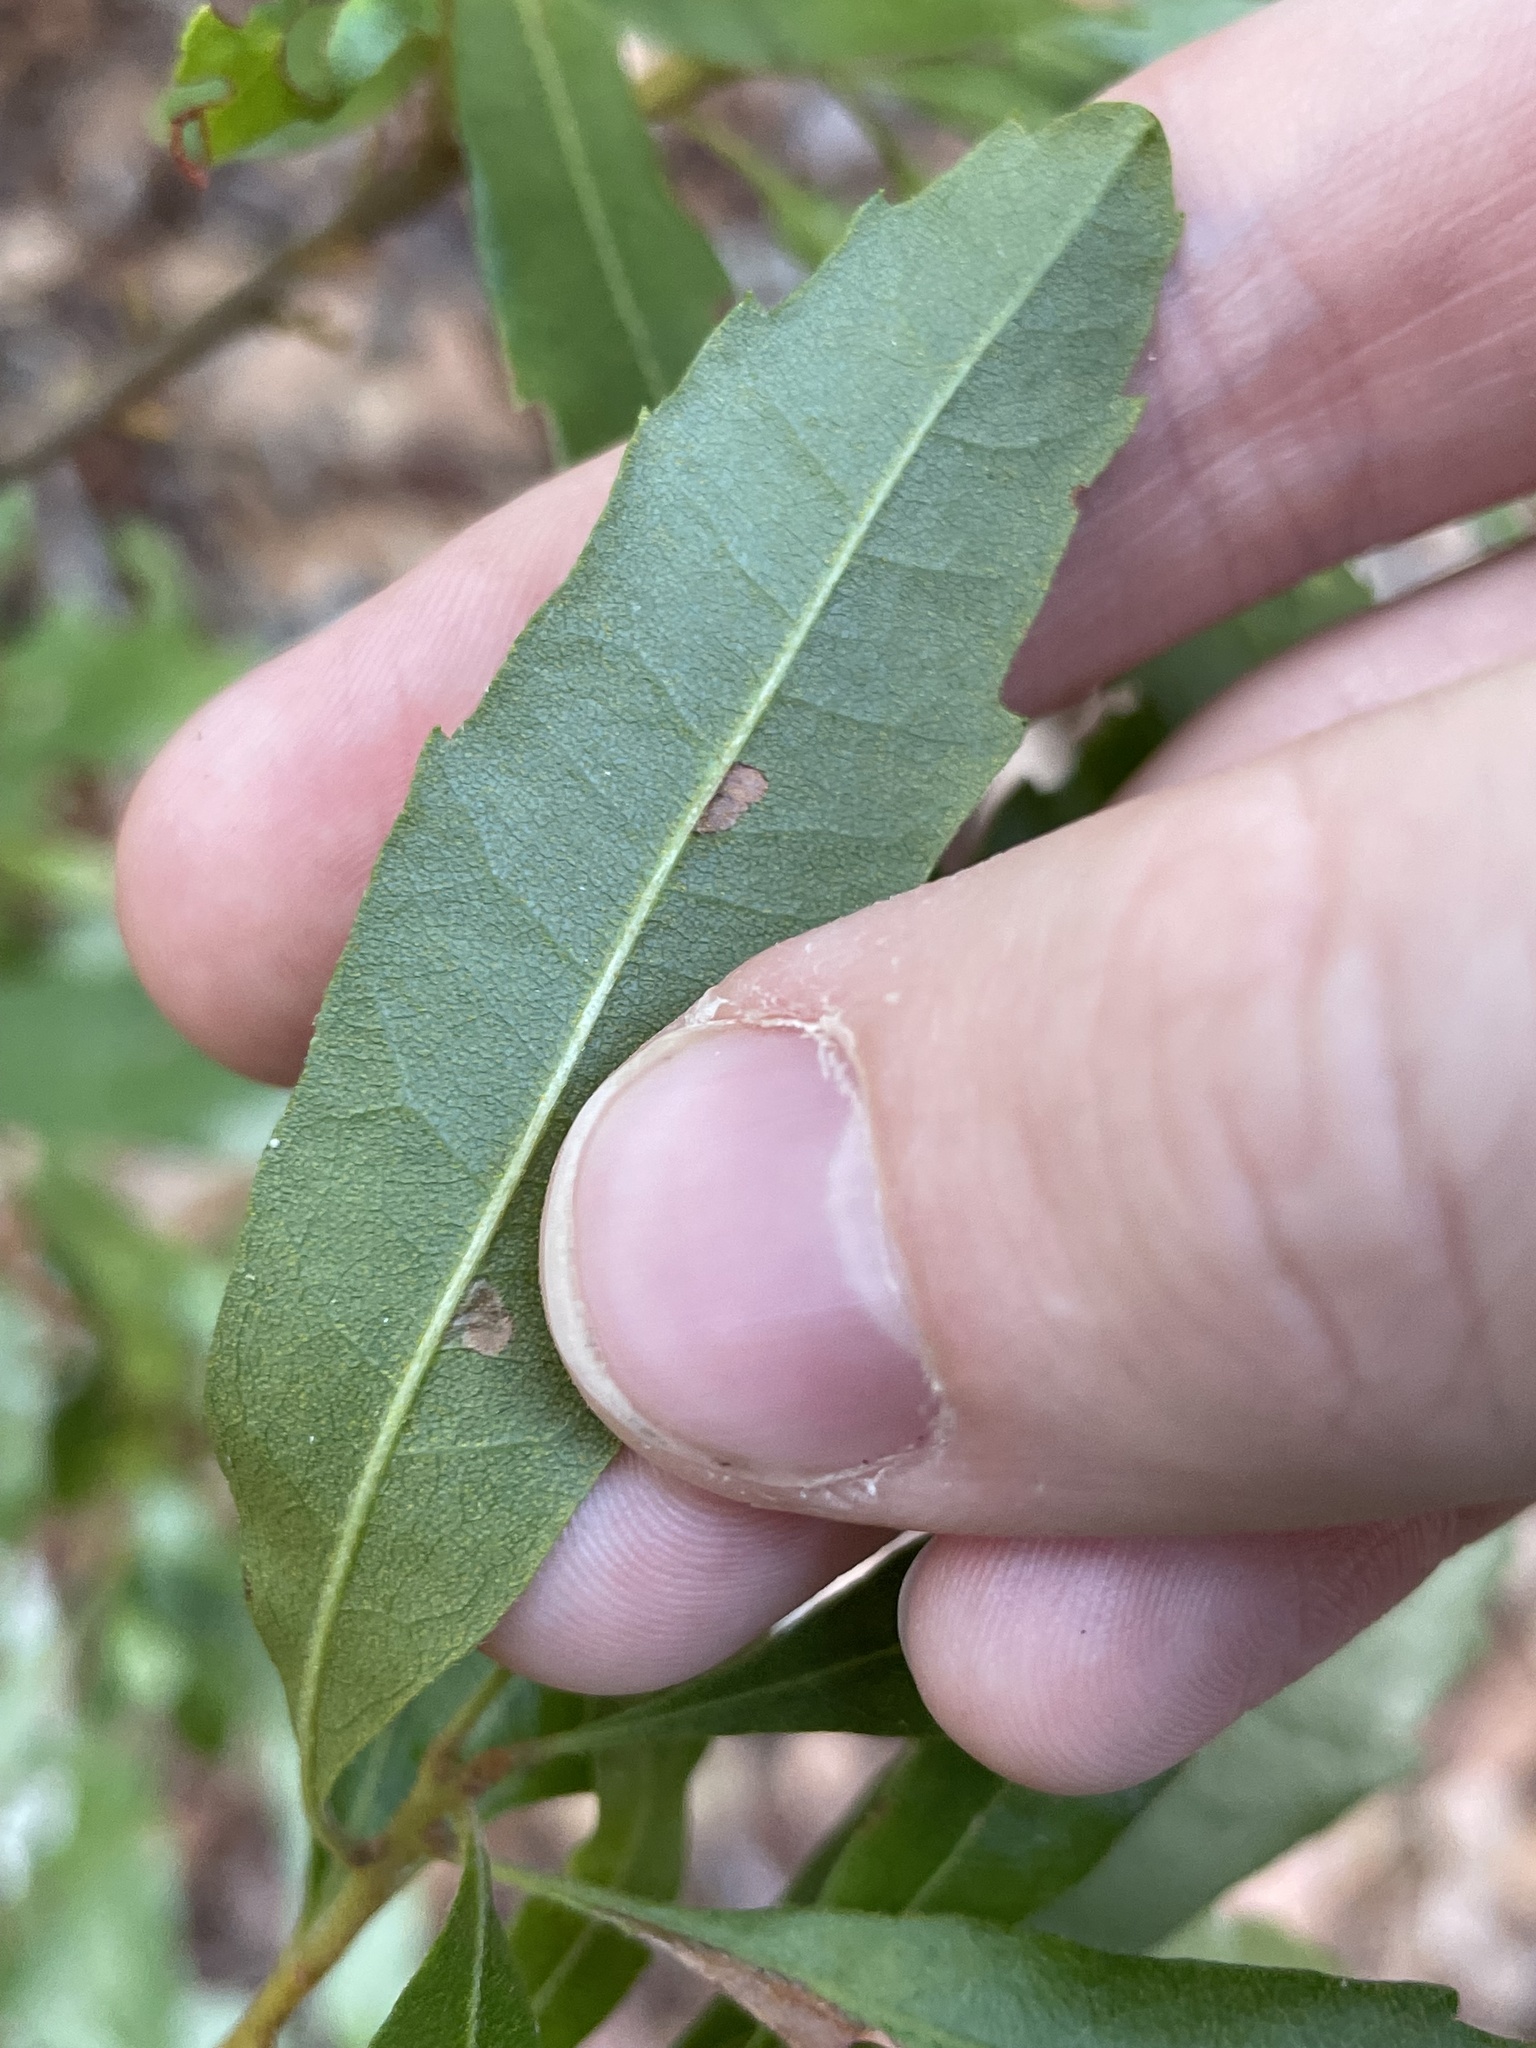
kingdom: Plantae
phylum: Tracheophyta
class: Magnoliopsida
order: Fagales
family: Myricaceae
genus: Morella
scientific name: Morella cerifera
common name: Wax myrtle
